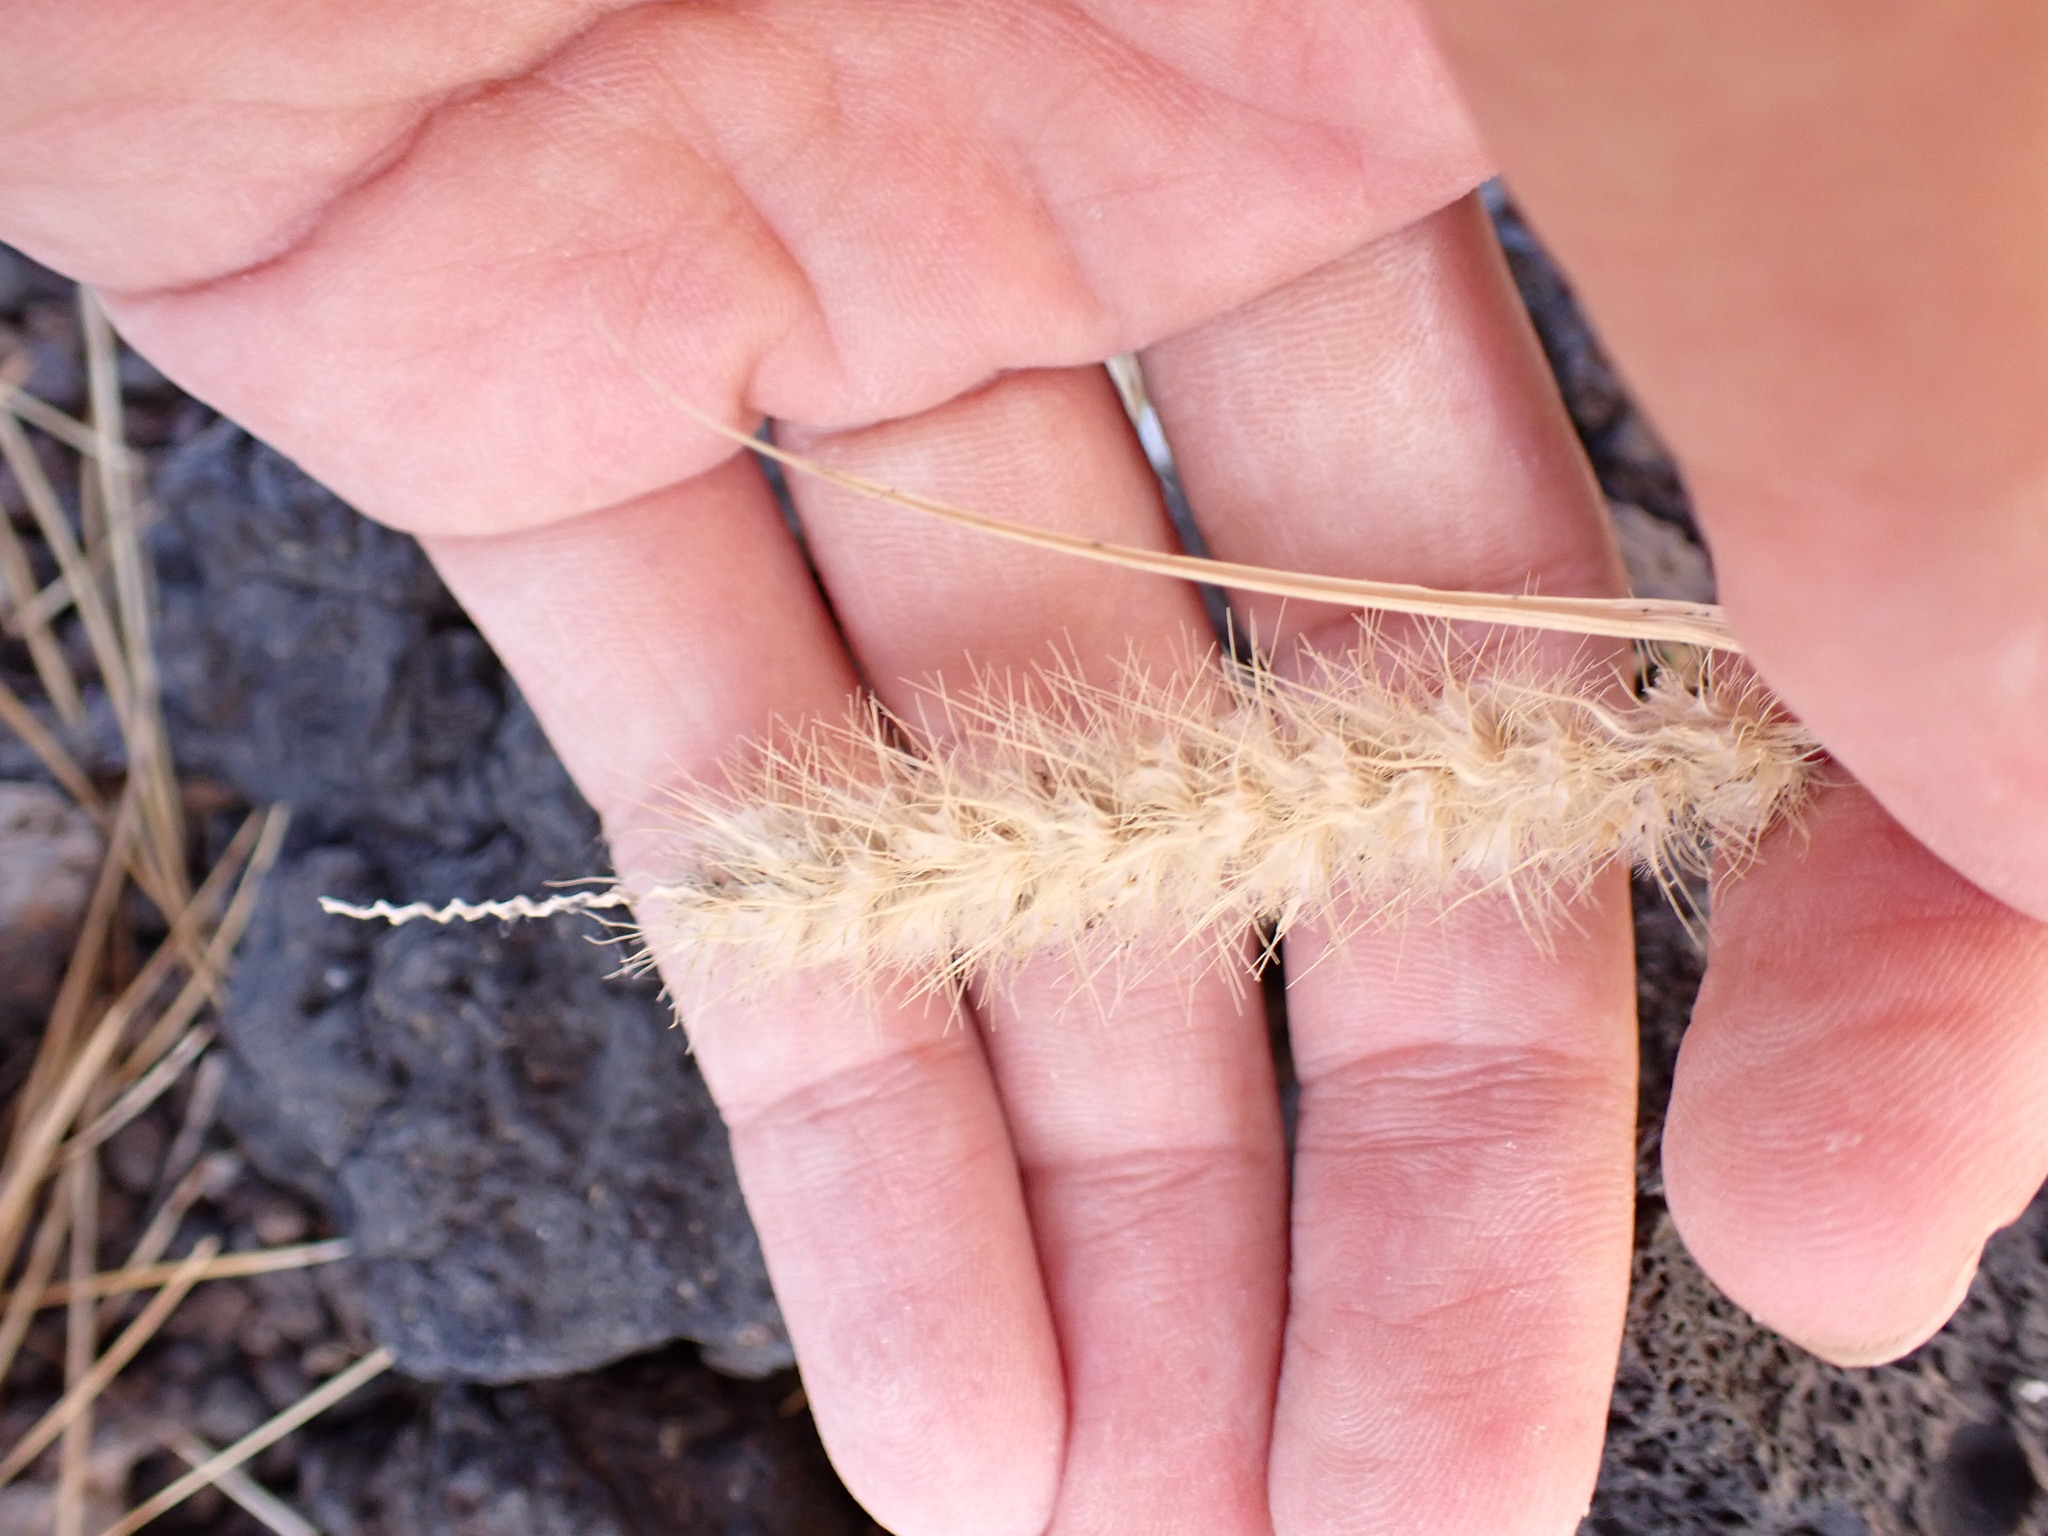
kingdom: Plantae
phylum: Tracheophyta
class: Liliopsida
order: Poales
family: Poaceae
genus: Cenchrus
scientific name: Cenchrus ciliaris
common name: Buffelgrass
